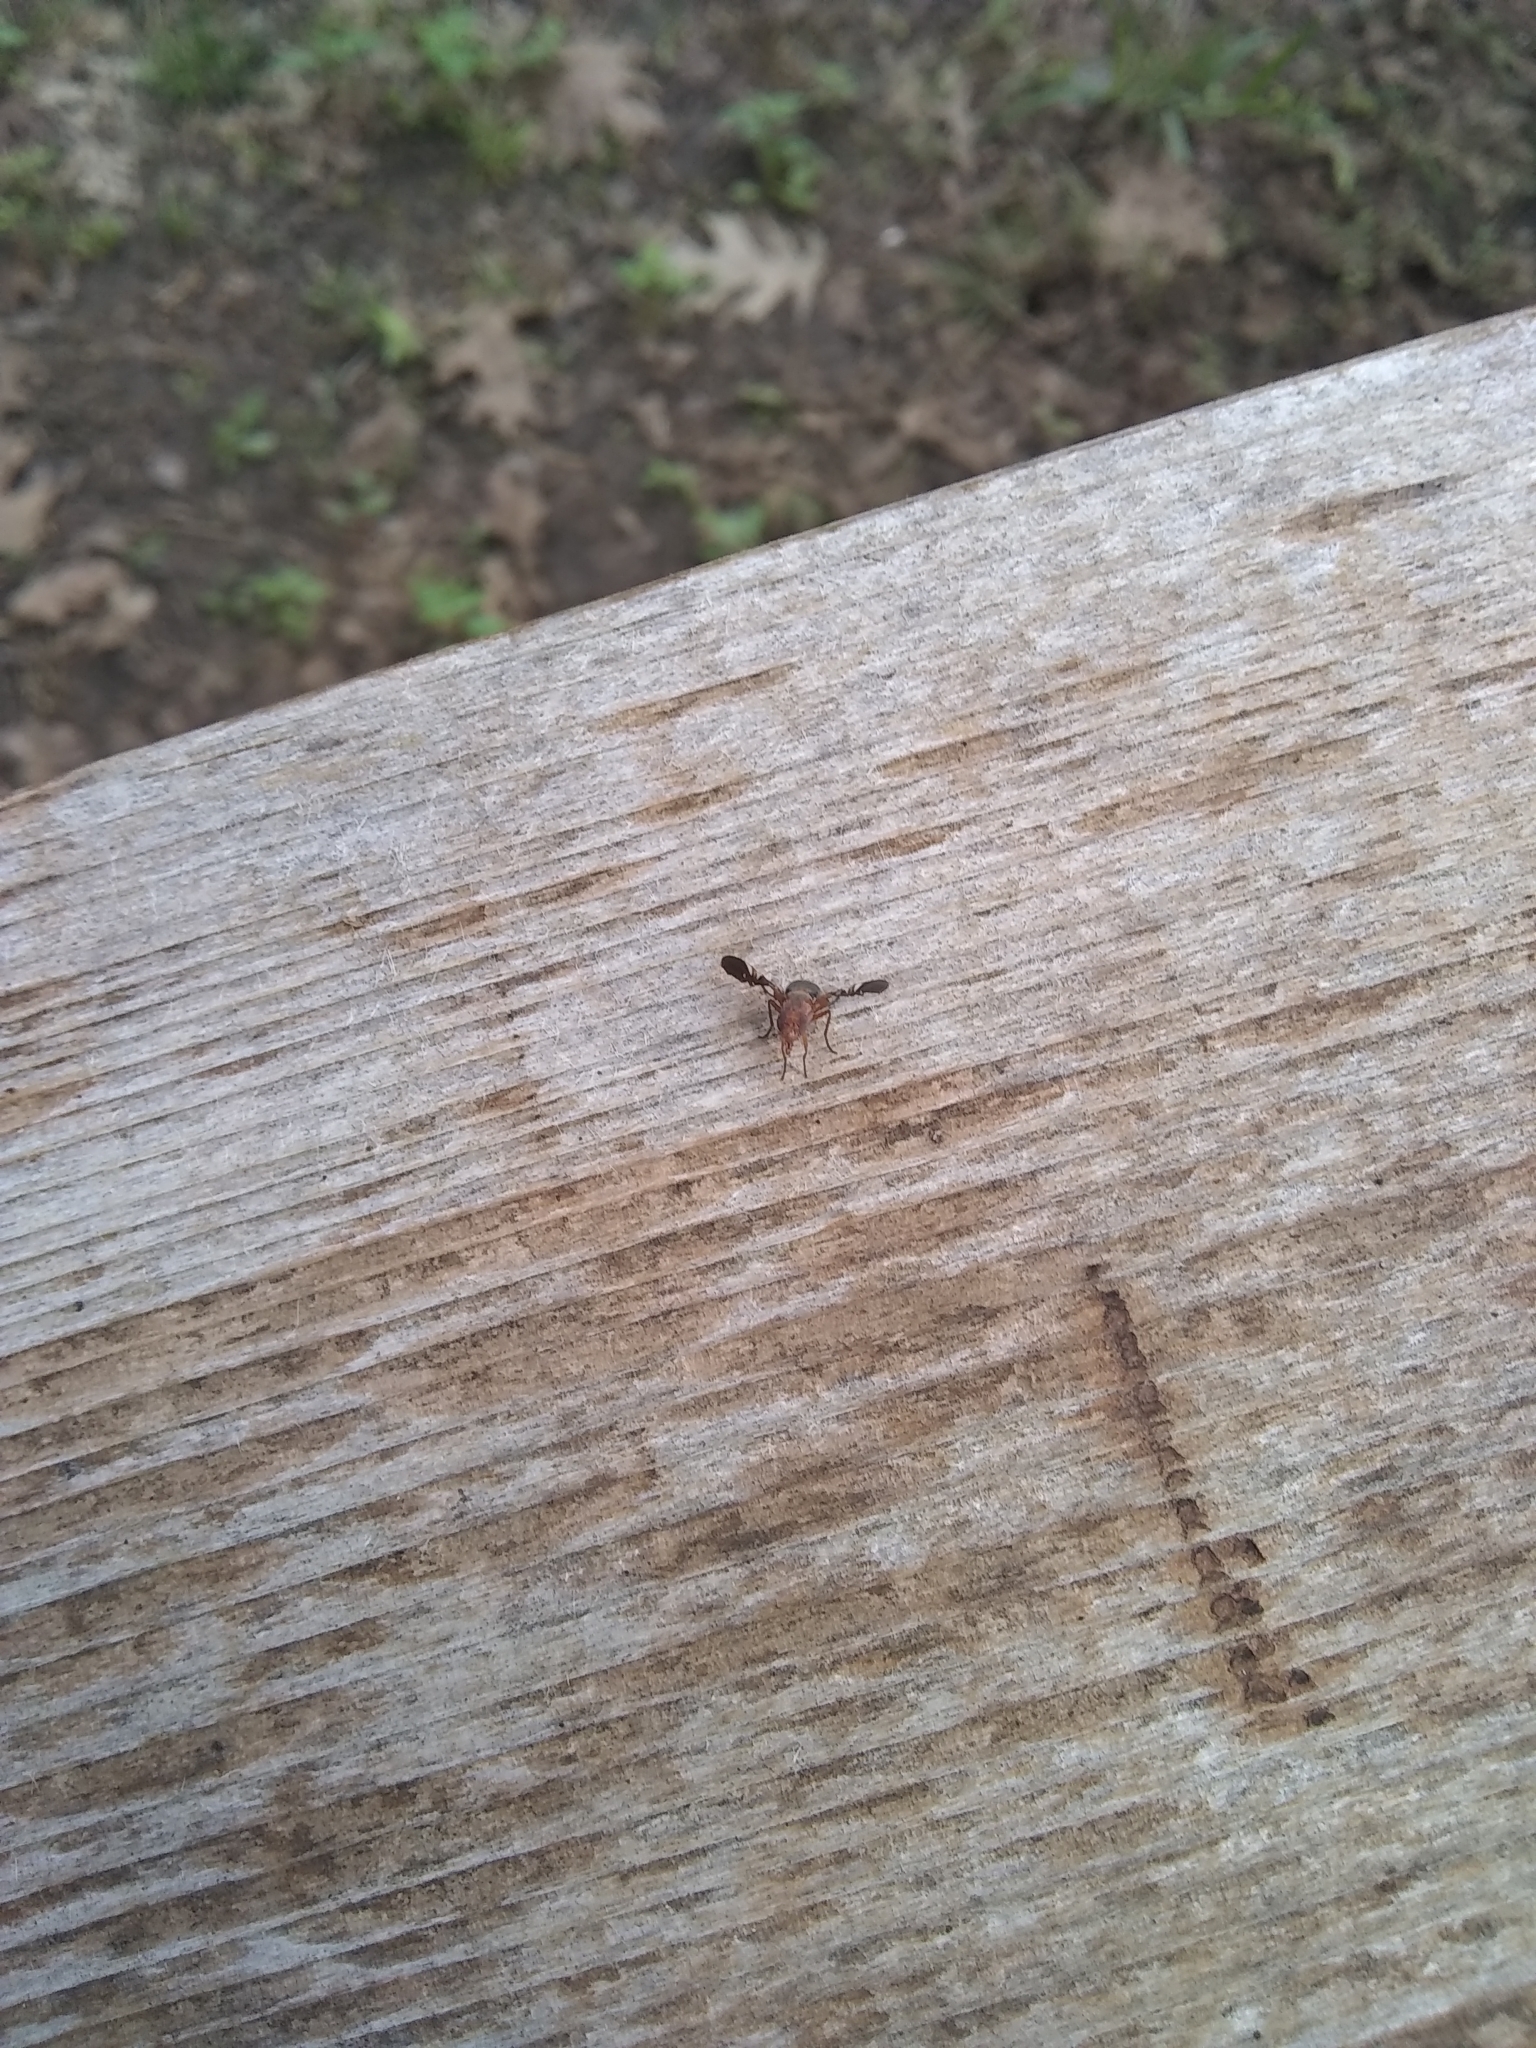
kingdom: Animalia
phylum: Arthropoda
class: Insecta
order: Diptera
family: Ulidiidae
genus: Delphinia
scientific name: Delphinia picta
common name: Common picture-winged fly
